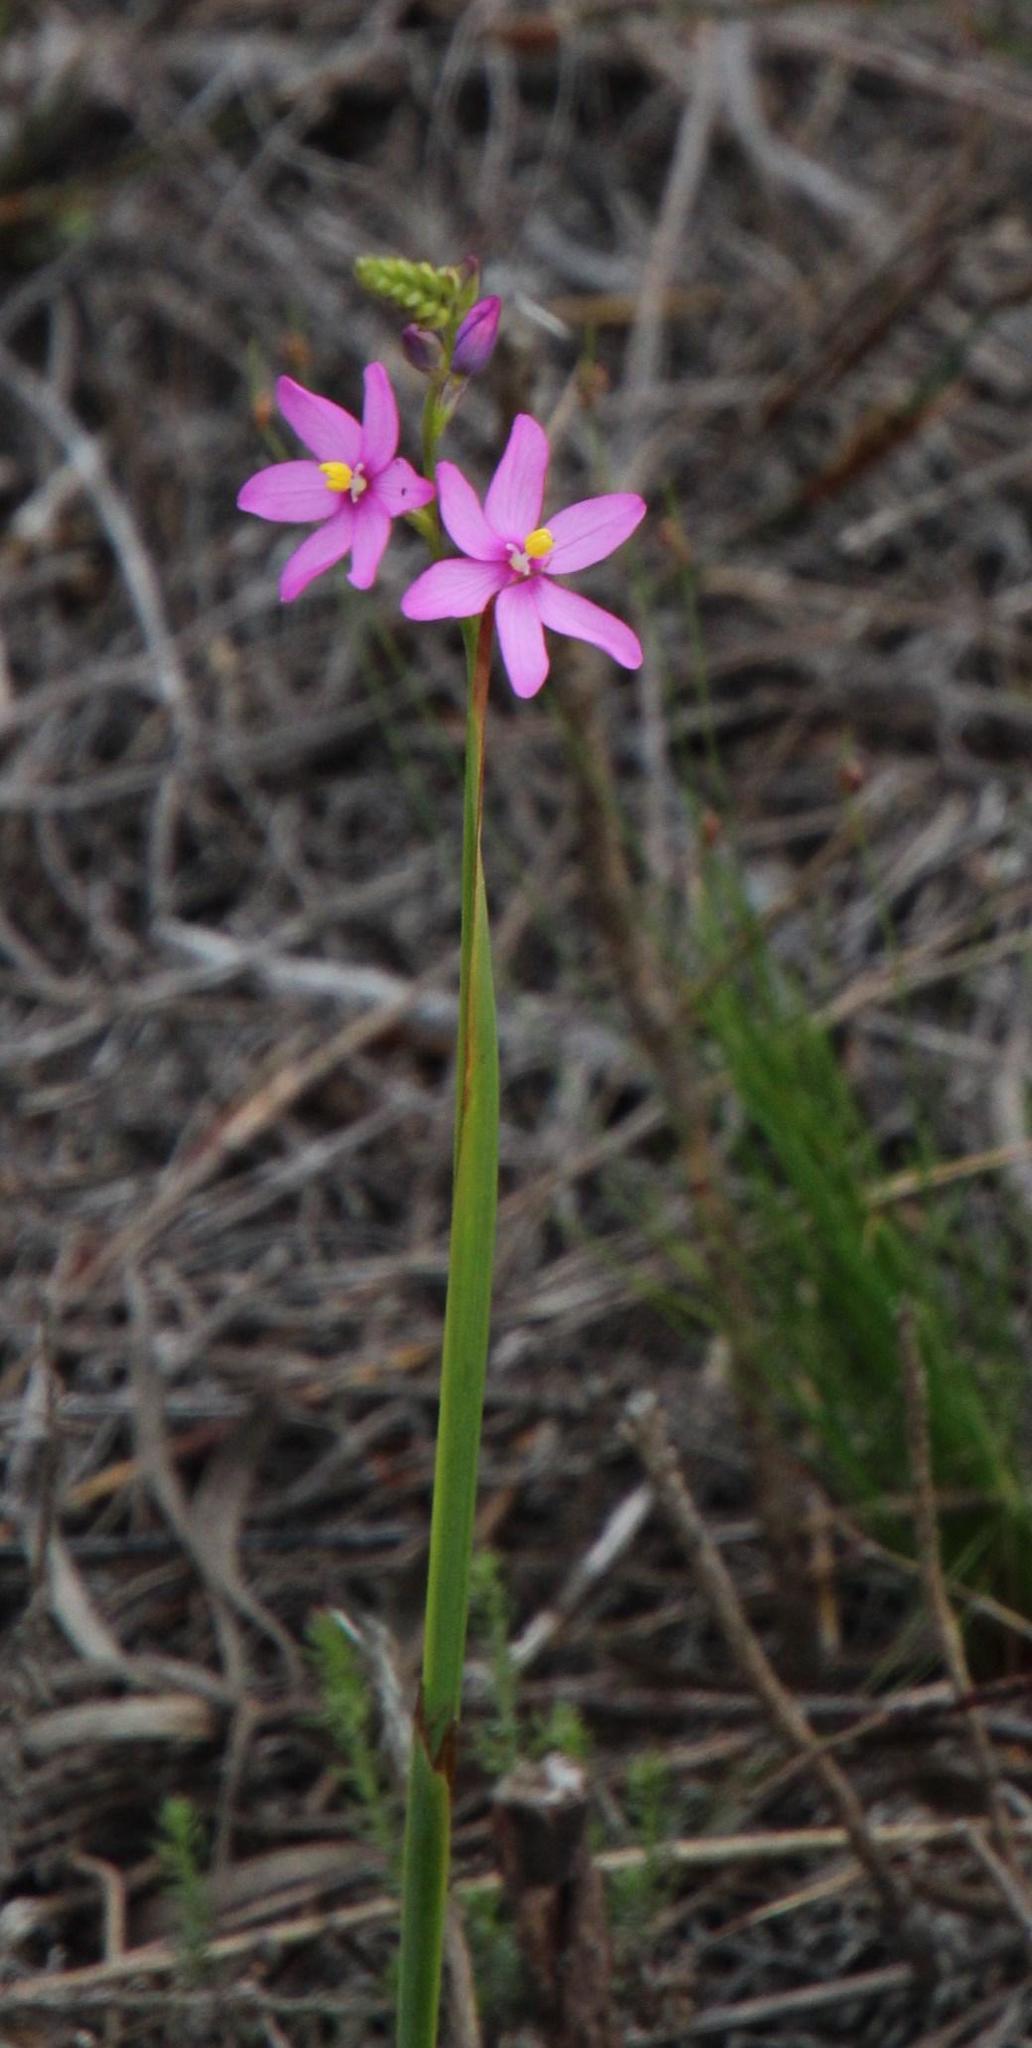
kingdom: Plantae
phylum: Tracheophyta
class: Liliopsida
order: Asparagales
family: Iridaceae
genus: Ixia
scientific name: Ixia stricta
